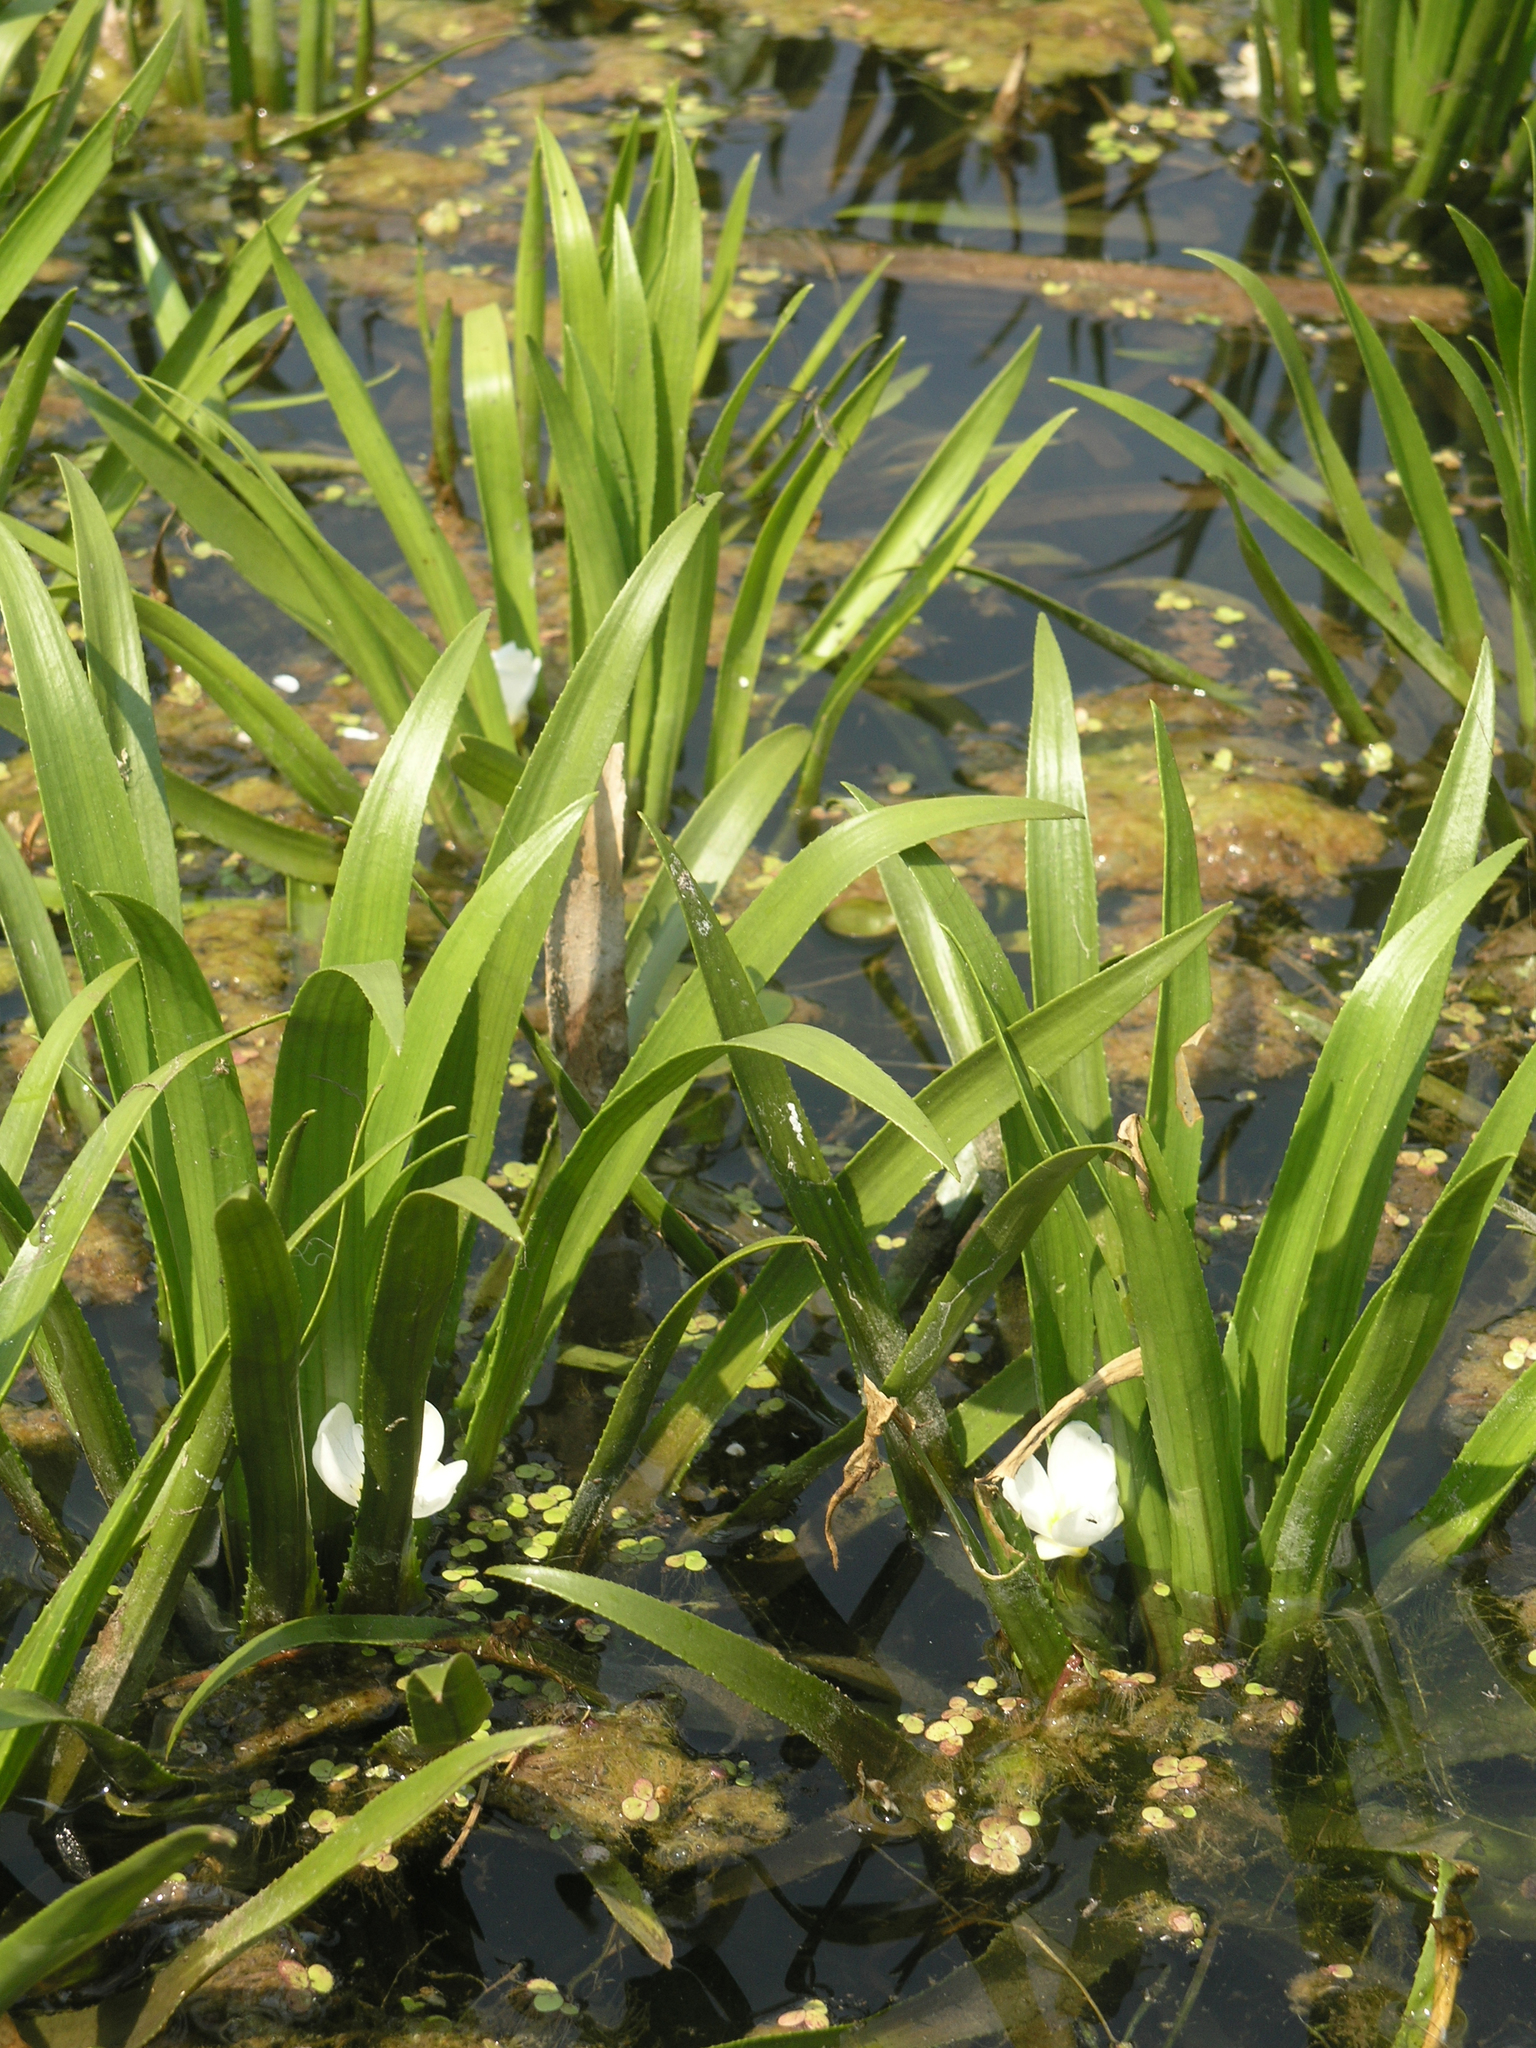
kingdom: Plantae
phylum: Tracheophyta
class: Liliopsida
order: Alismatales
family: Hydrocharitaceae
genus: Stratiotes
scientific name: Stratiotes aloides
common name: Water-soldier
